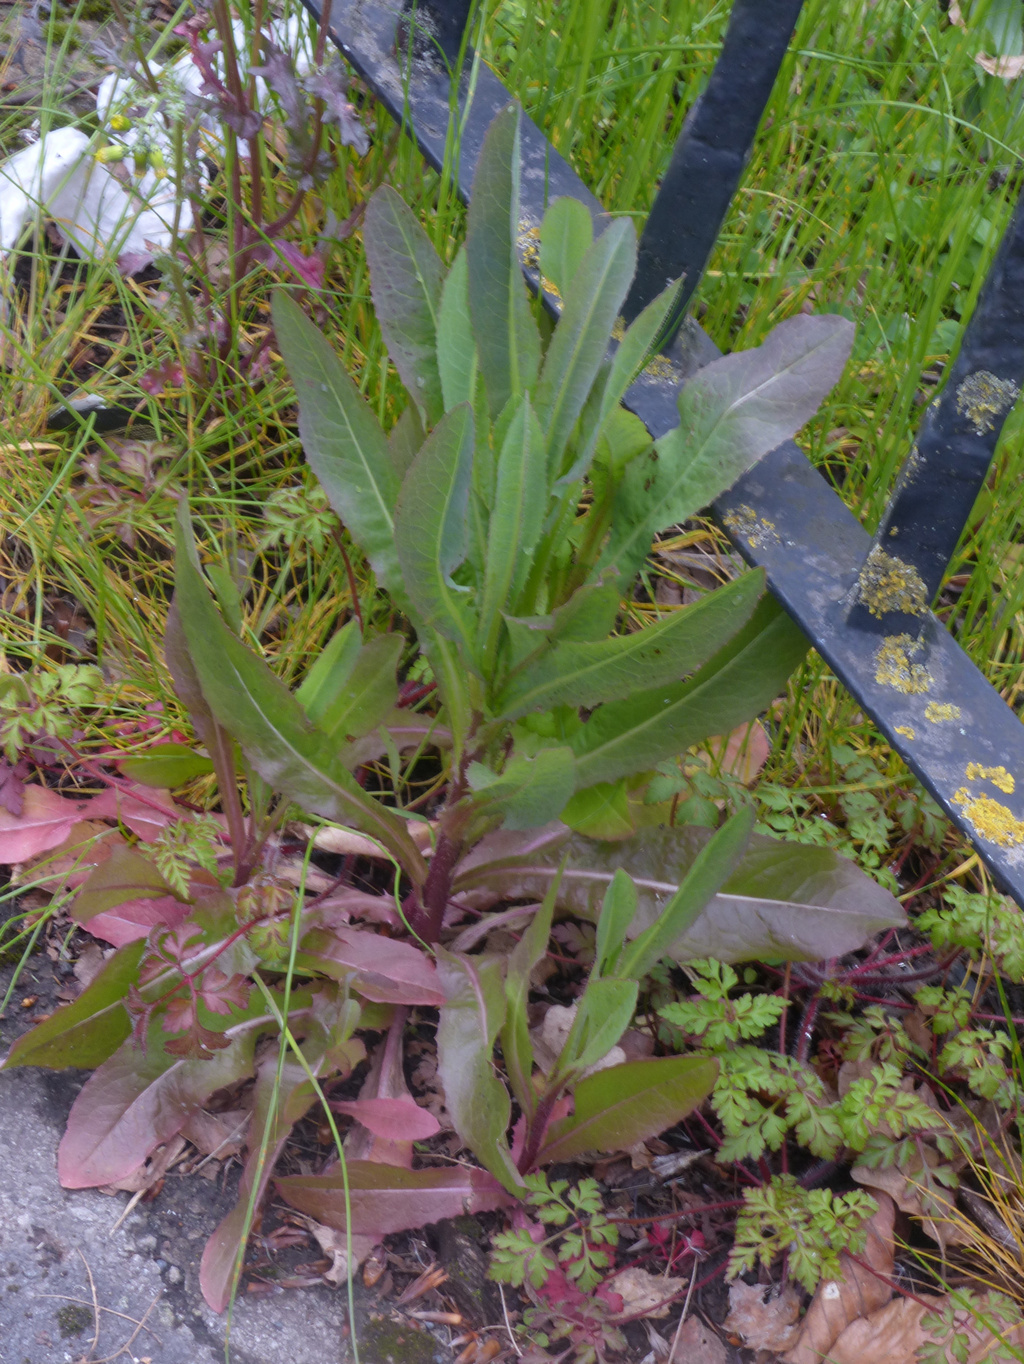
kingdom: Plantae
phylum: Tracheophyta
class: Magnoliopsida
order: Asterales
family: Asteraceae
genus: Lactuca
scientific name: Lactuca serriola
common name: Prickly lettuce
